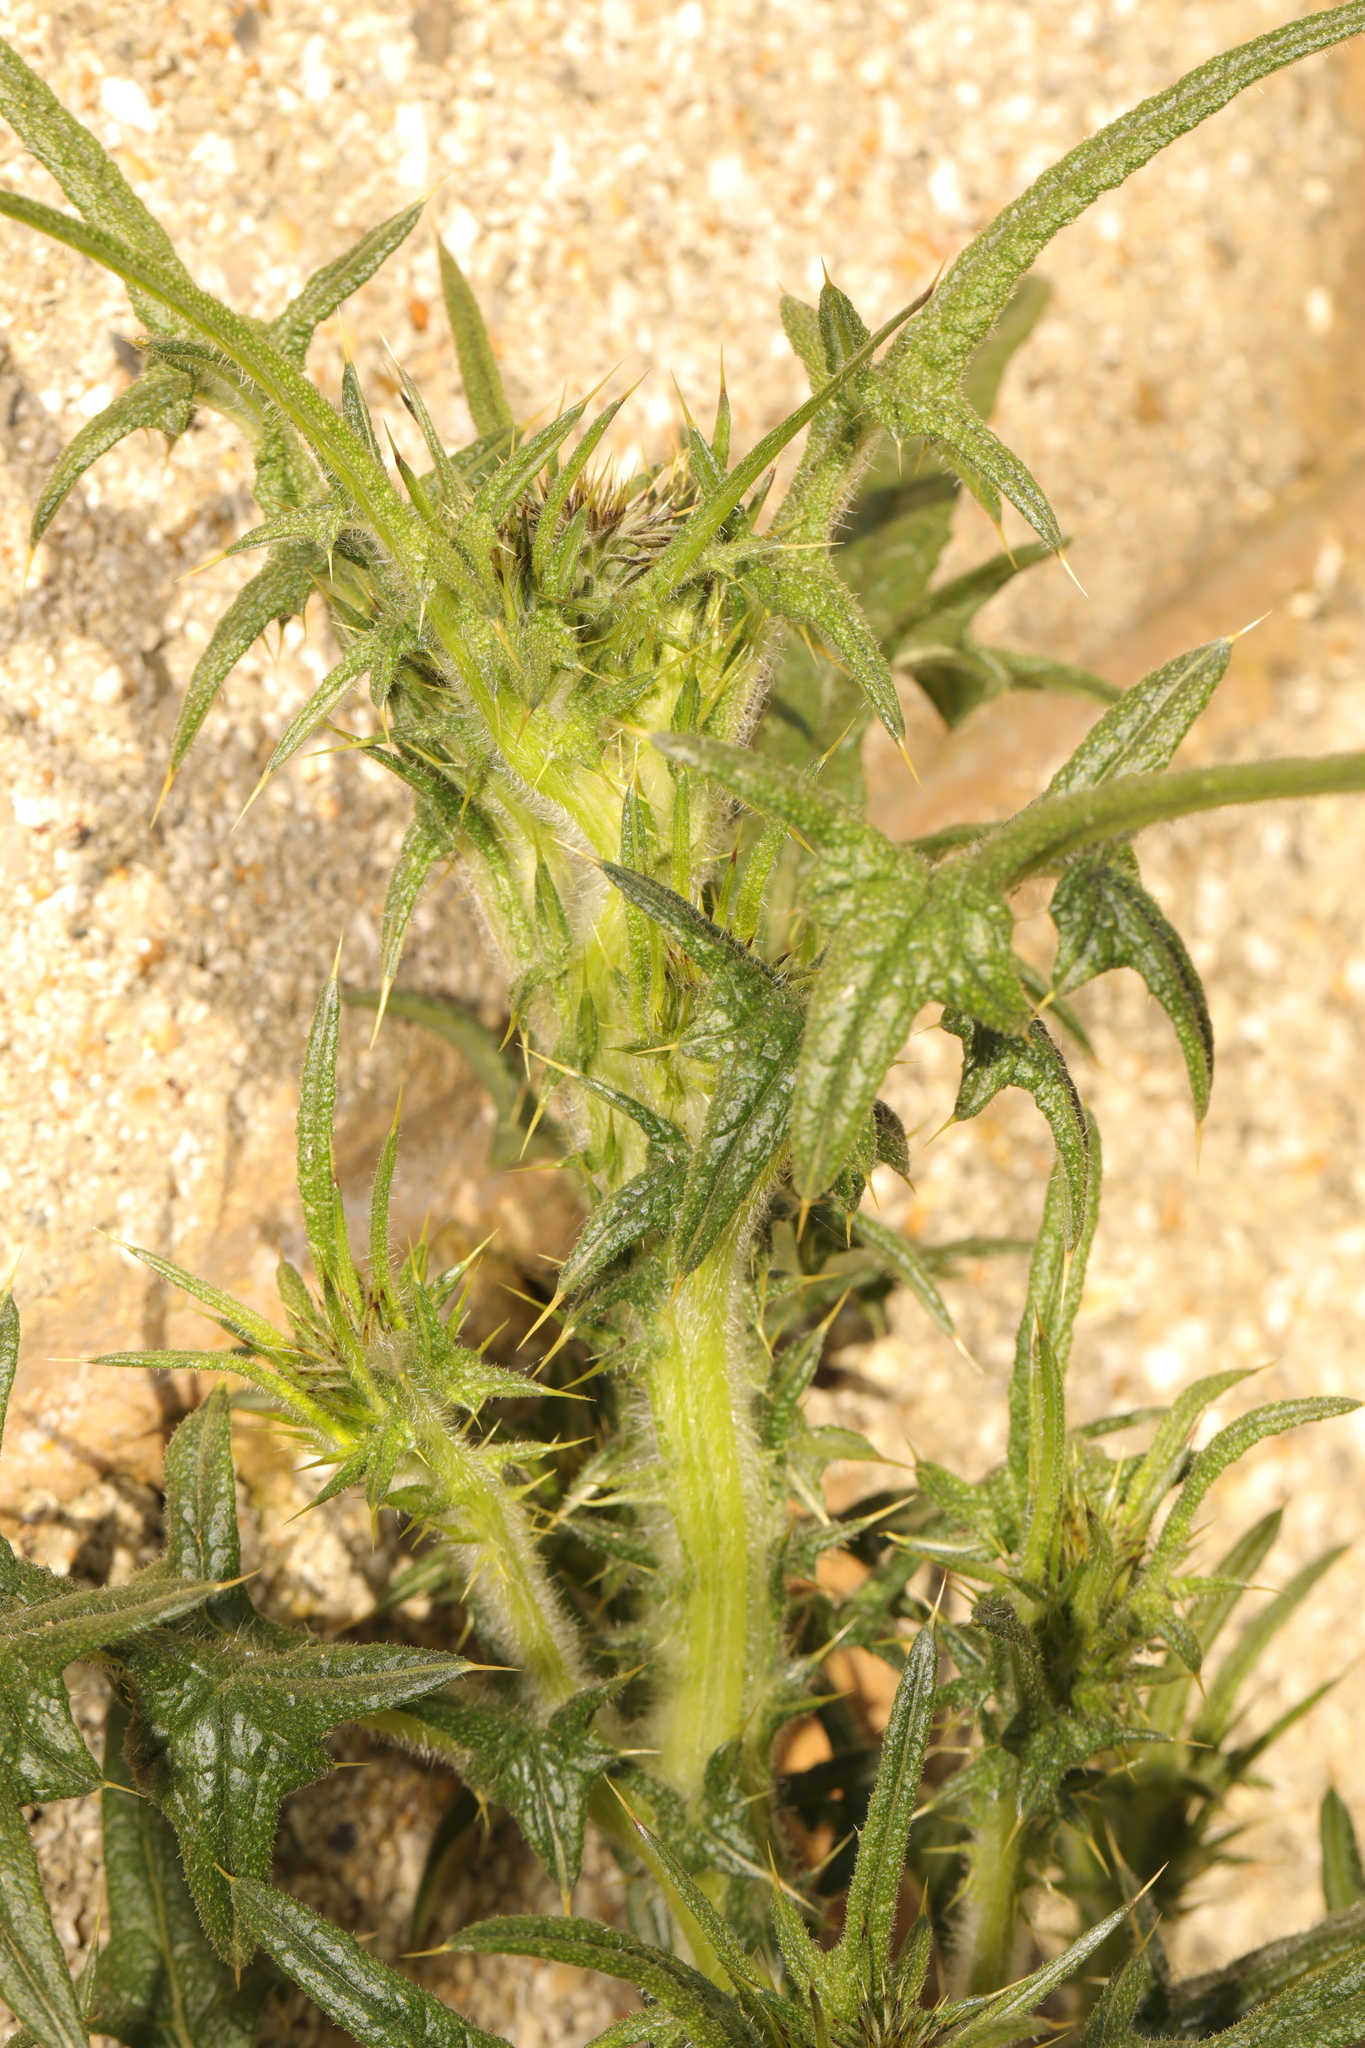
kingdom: Plantae
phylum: Tracheophyta
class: Magnoliopsida
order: Asterales
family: Asteraceae
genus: Cirsium
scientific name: Cirsium vulgare
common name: Bull thistle
